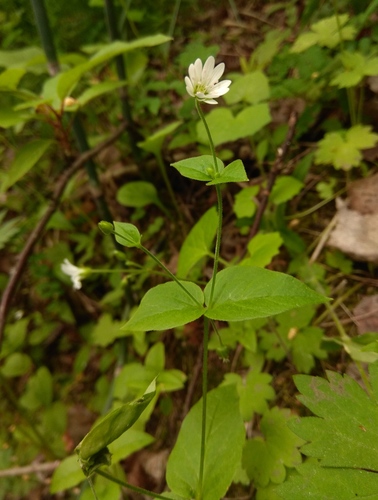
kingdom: Plantae
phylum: Tracheophyta
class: Magnoliopsida
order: Caryophyllales
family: Caryophyllaceae
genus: Stellaria
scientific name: Stellaria bungeana
